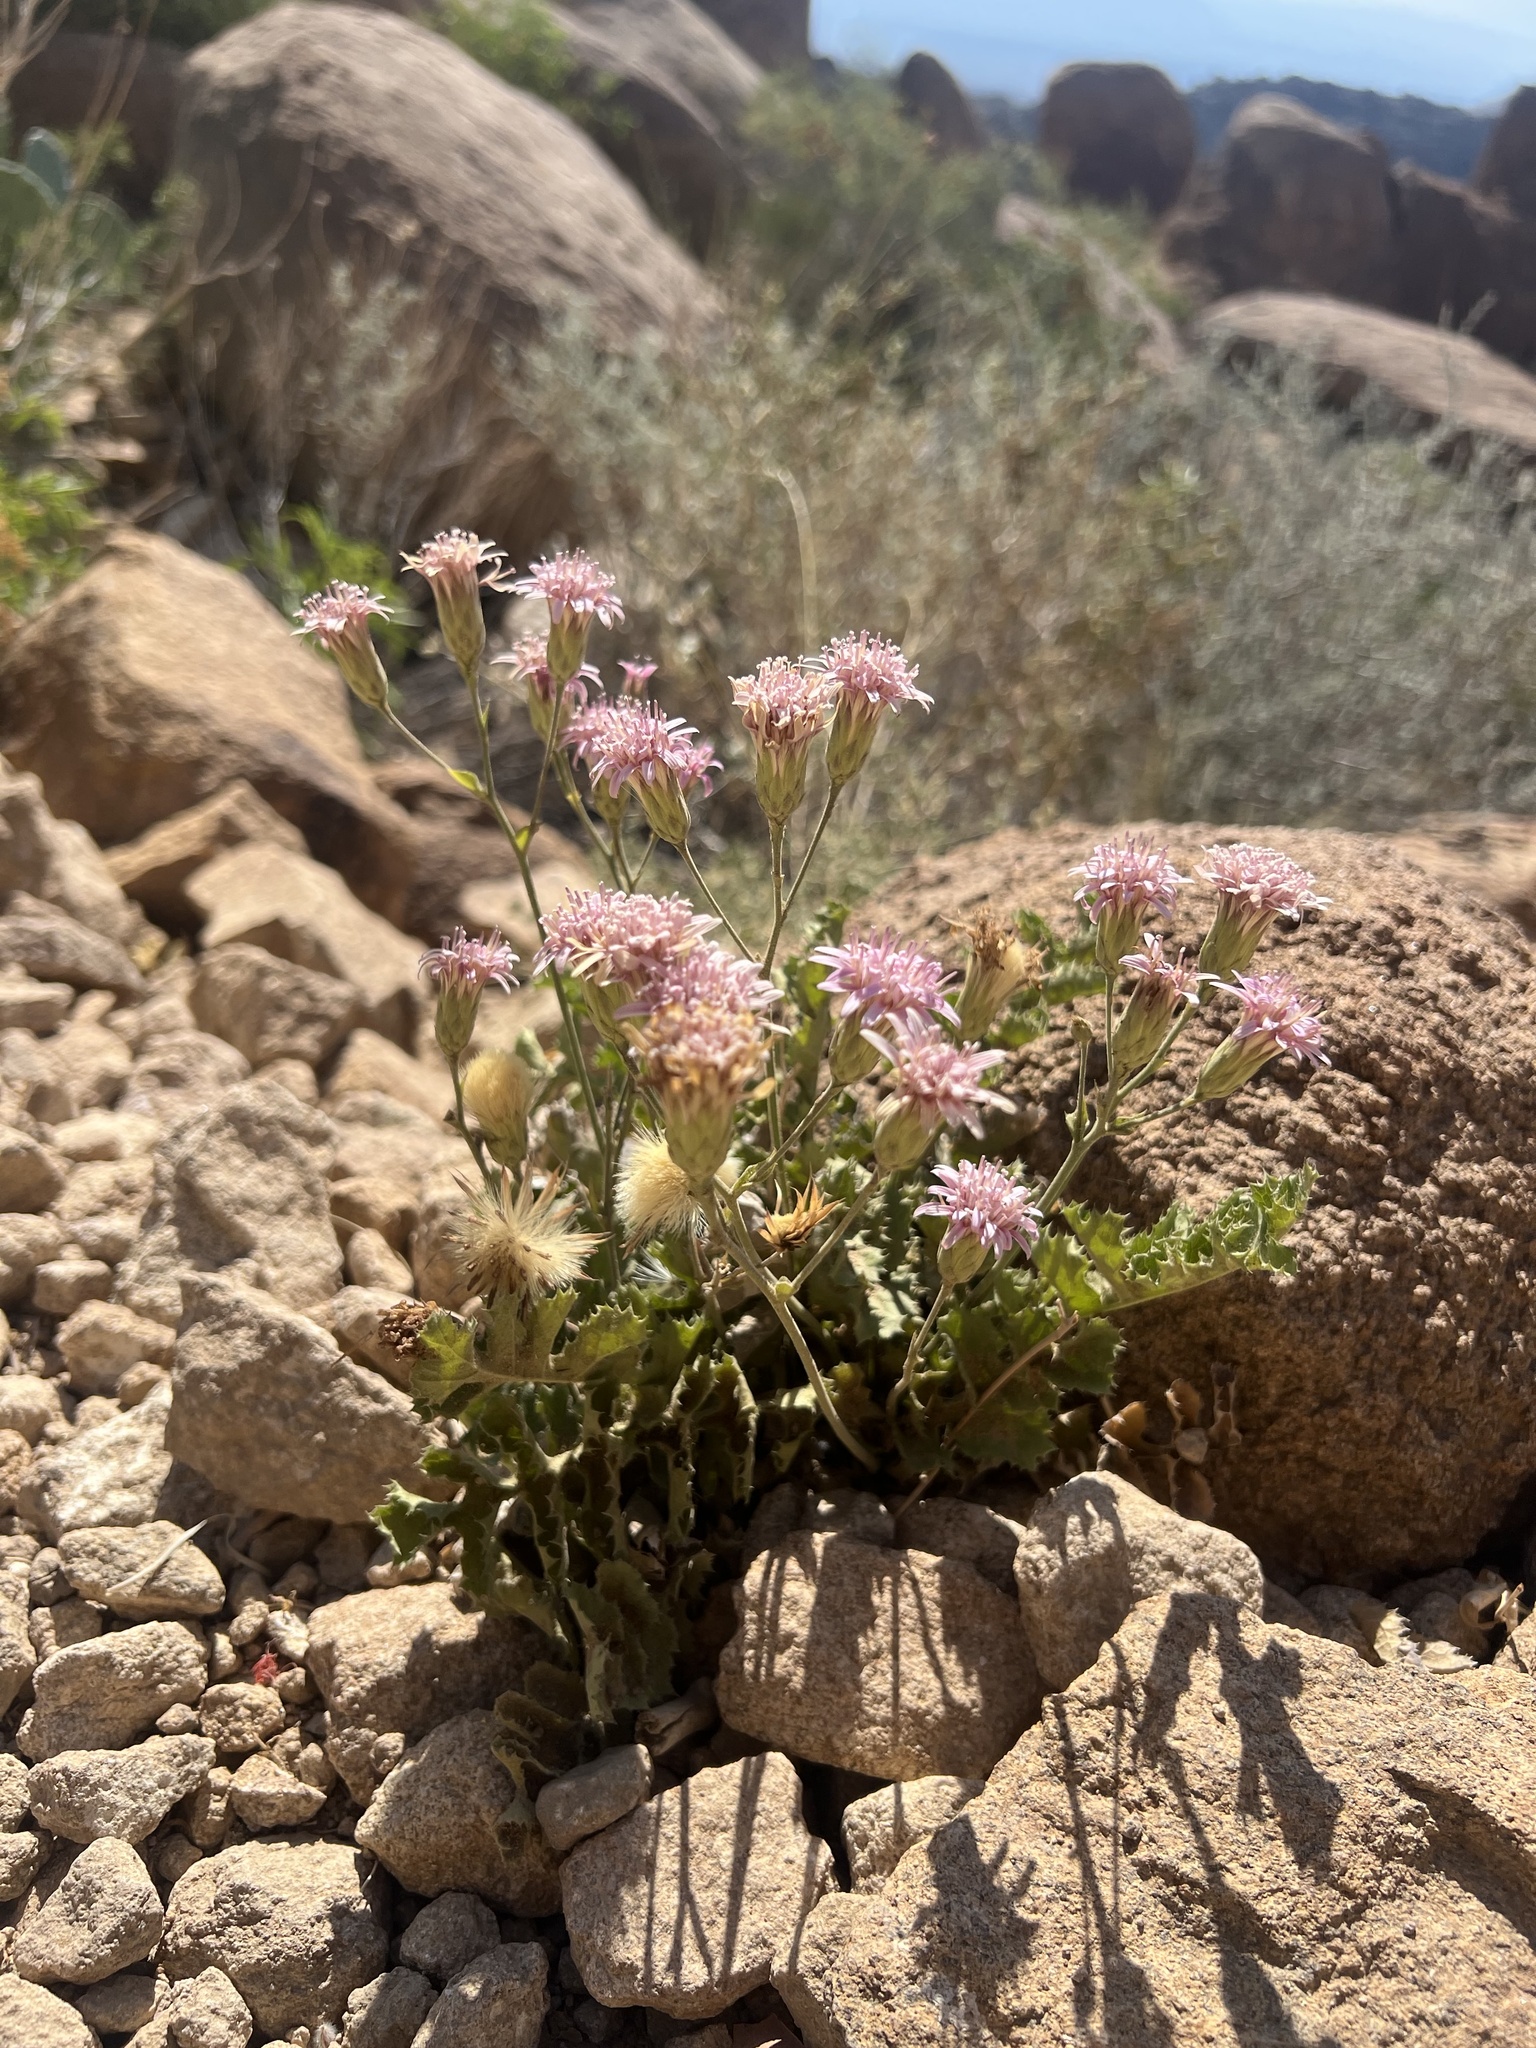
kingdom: Plantae
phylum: Tracheophyta
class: Magnoliopsida
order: Asterales
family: Asteraceae
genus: Acourtia
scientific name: Acourtia runcinata
